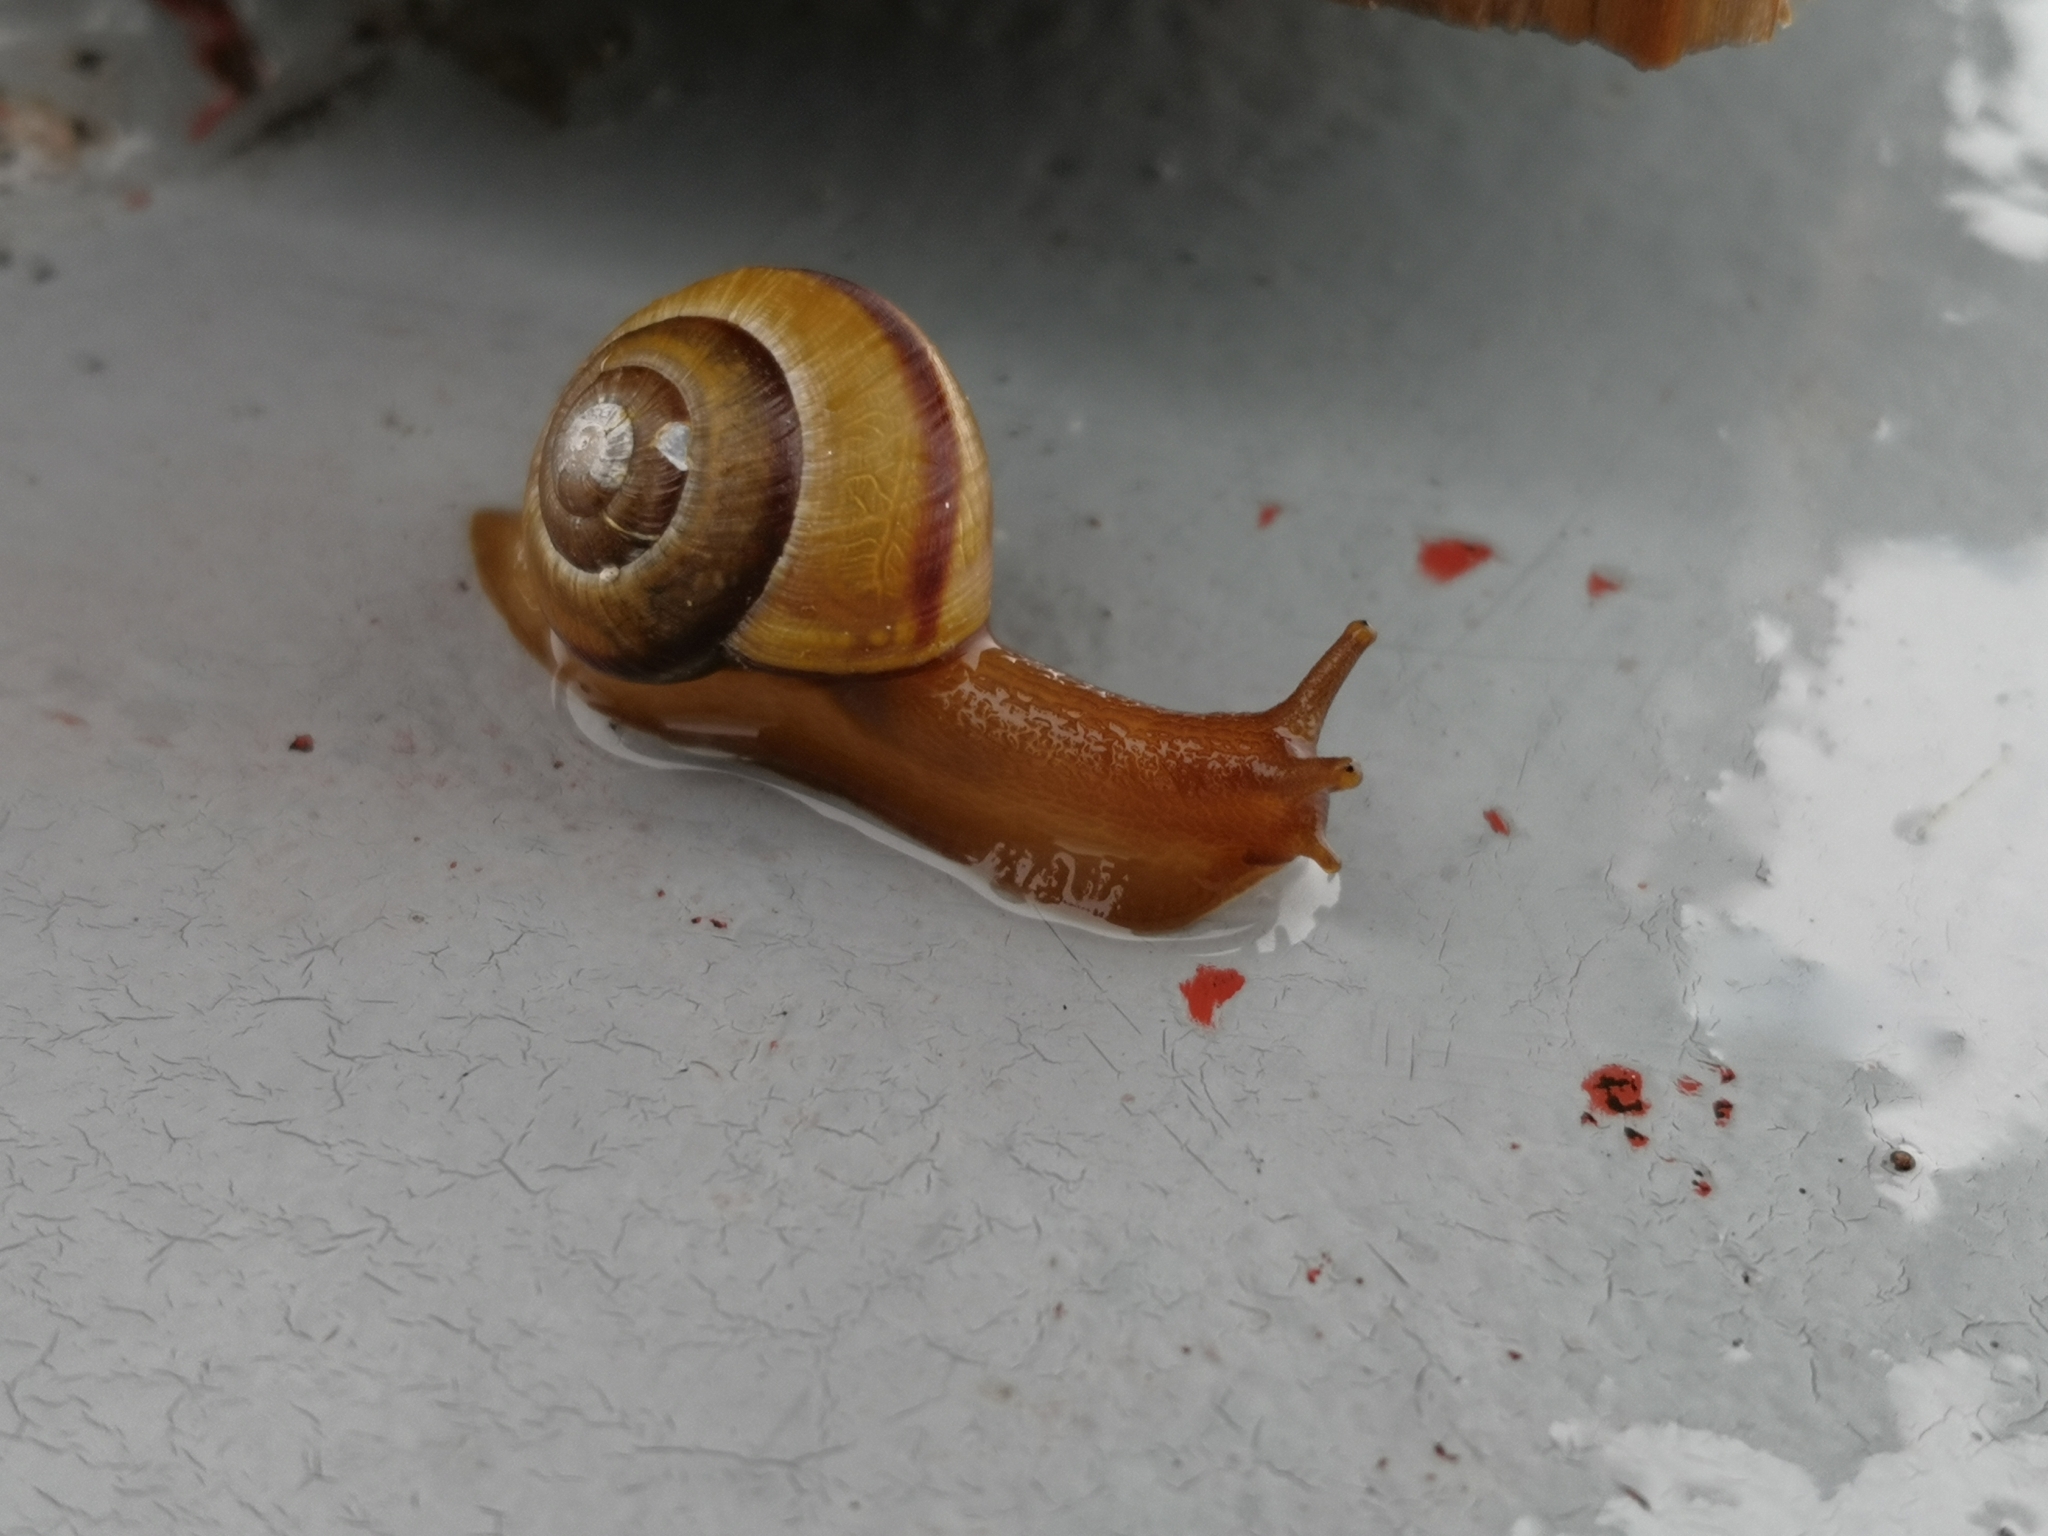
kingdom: Animalia
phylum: Mollusca
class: Gastropoda
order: Stylommatophora
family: Camaenidae
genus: Fruticicola
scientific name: Fruticicola fruticum
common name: Bush snail
